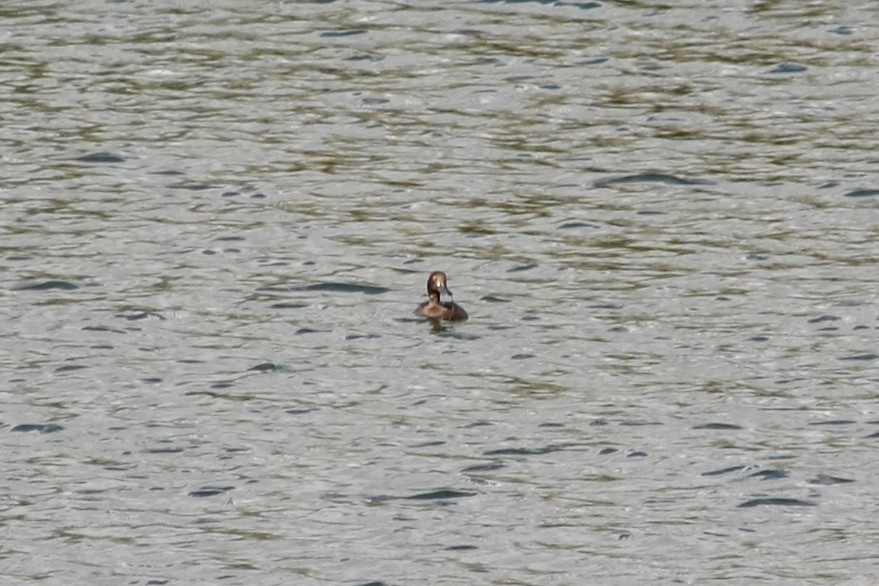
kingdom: Animalia
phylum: Chordata
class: Aves
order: Anseriformes
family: Anatidae
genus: Aythya
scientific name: Aythya fuligula
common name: Tufted duck
